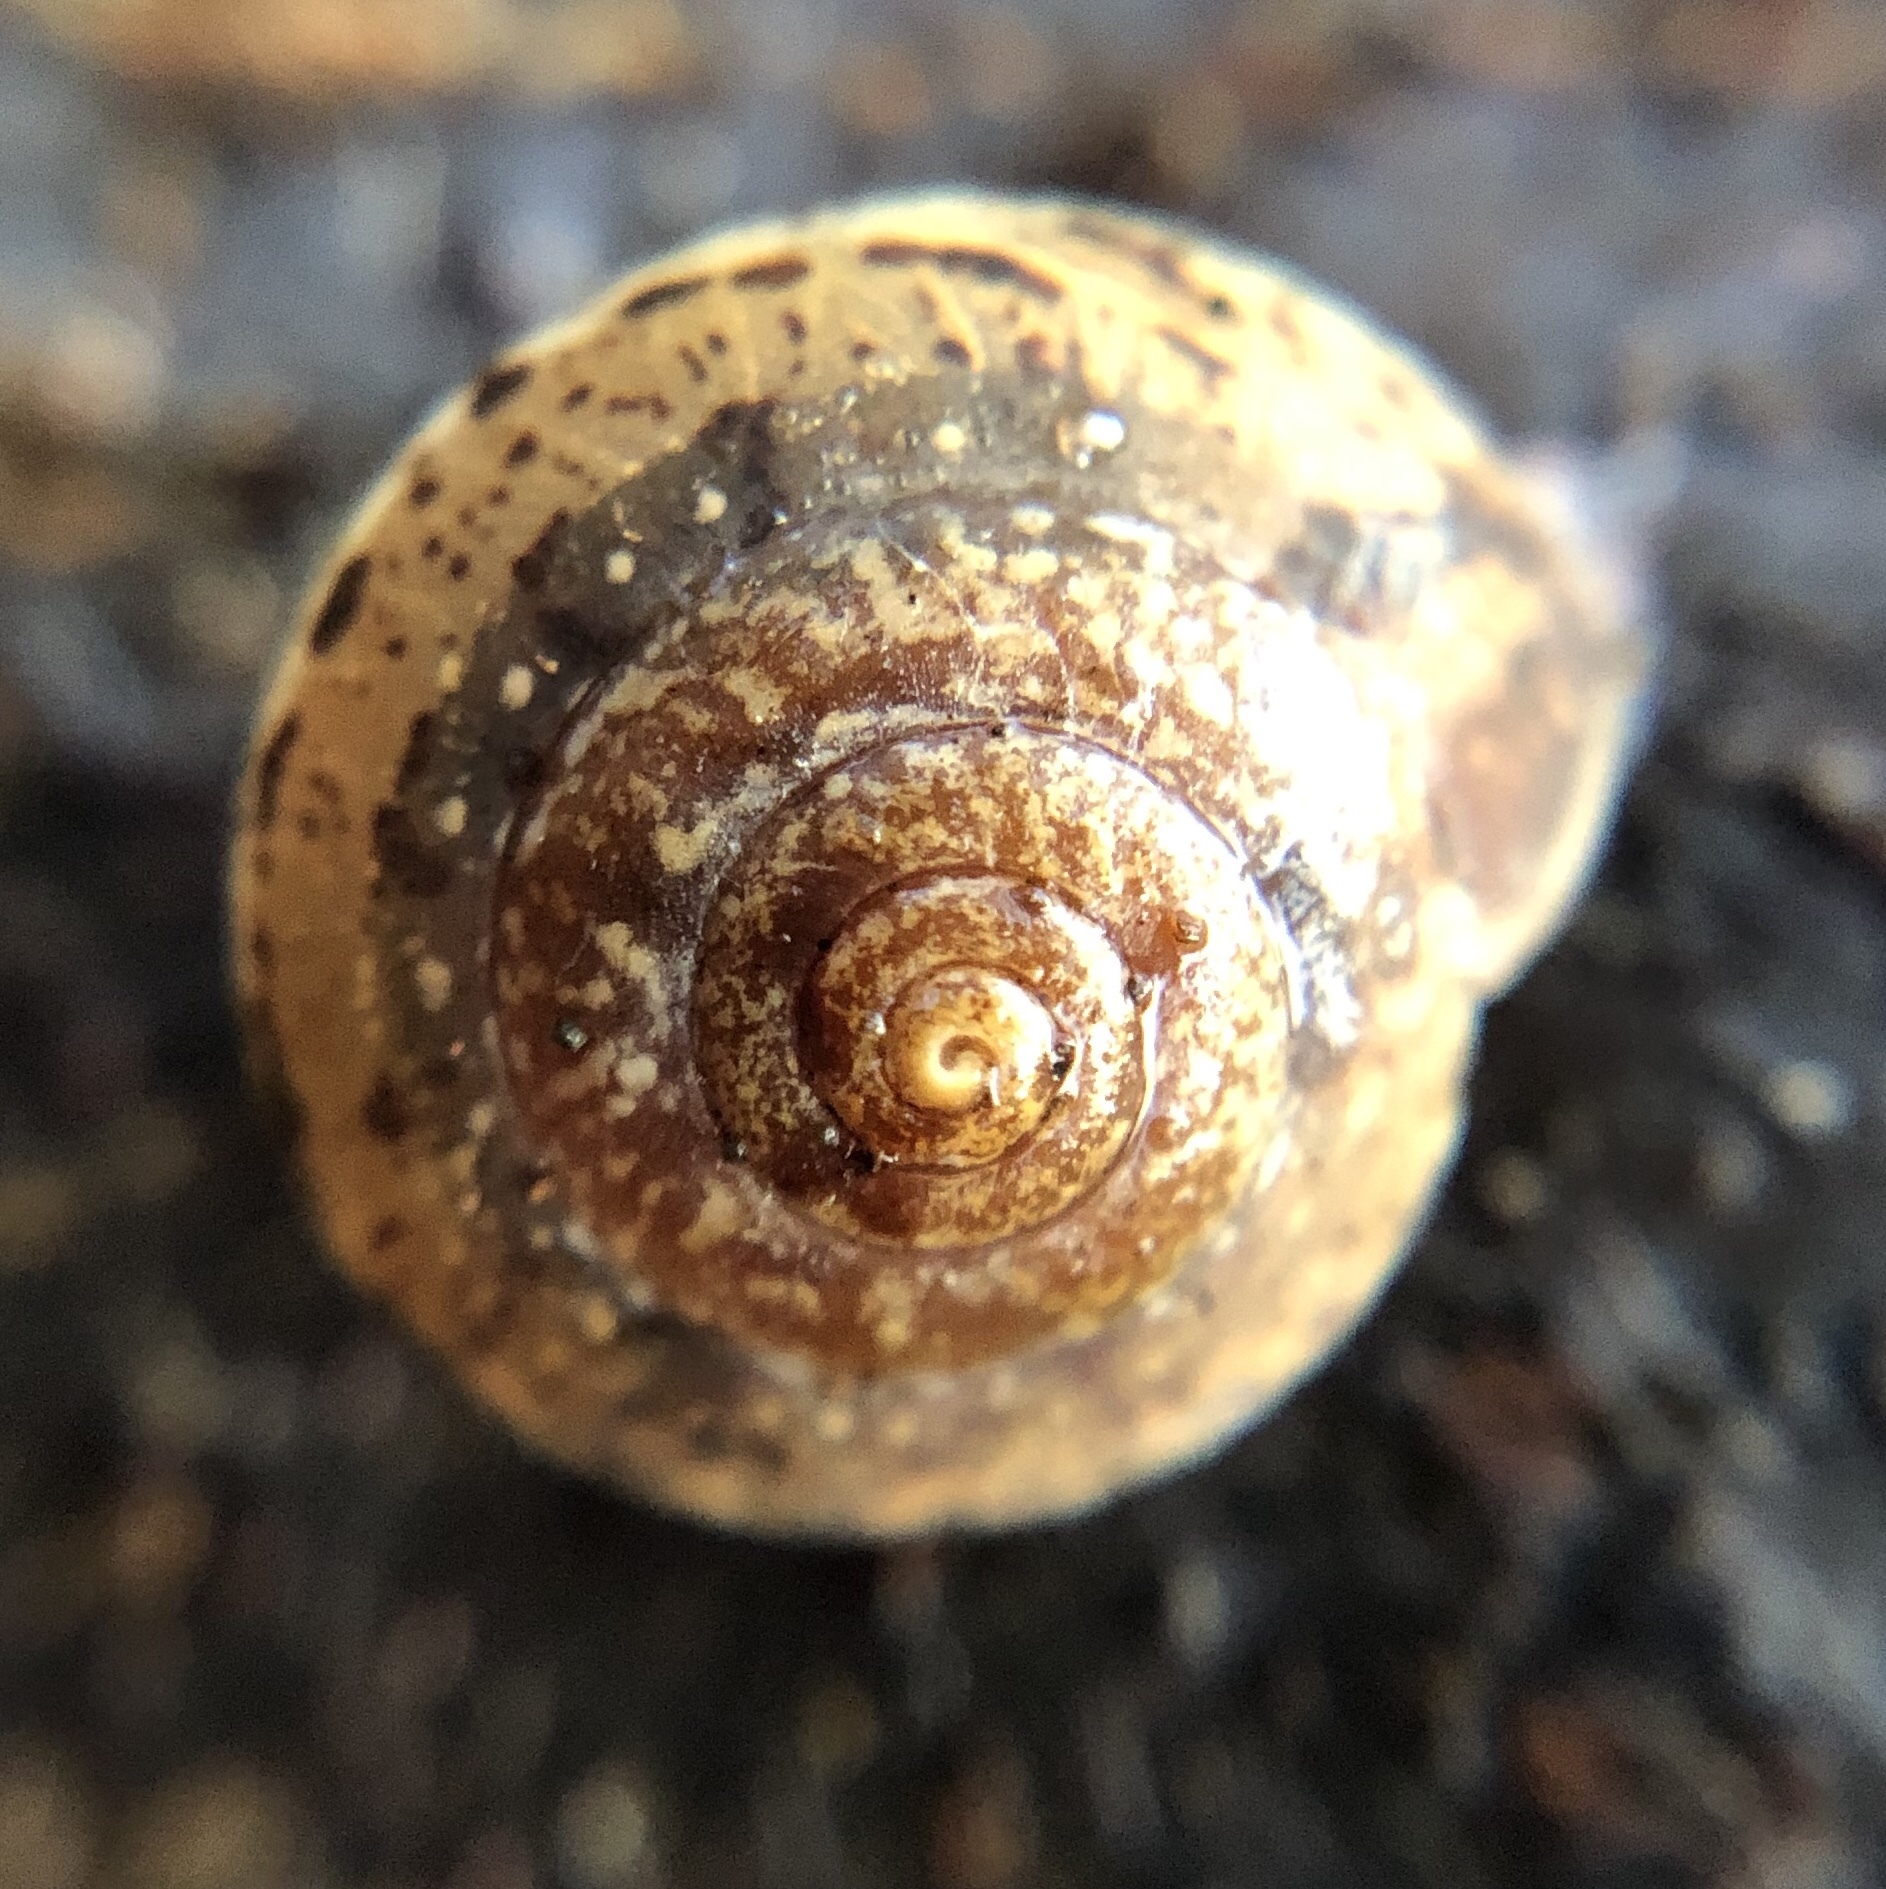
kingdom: Animalia
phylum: Mollusca
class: Gastropoda
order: Stylommatophora
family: Hygromiidae
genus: Monachoides
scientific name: Monachoides incarnatus
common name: Incarnate snail
